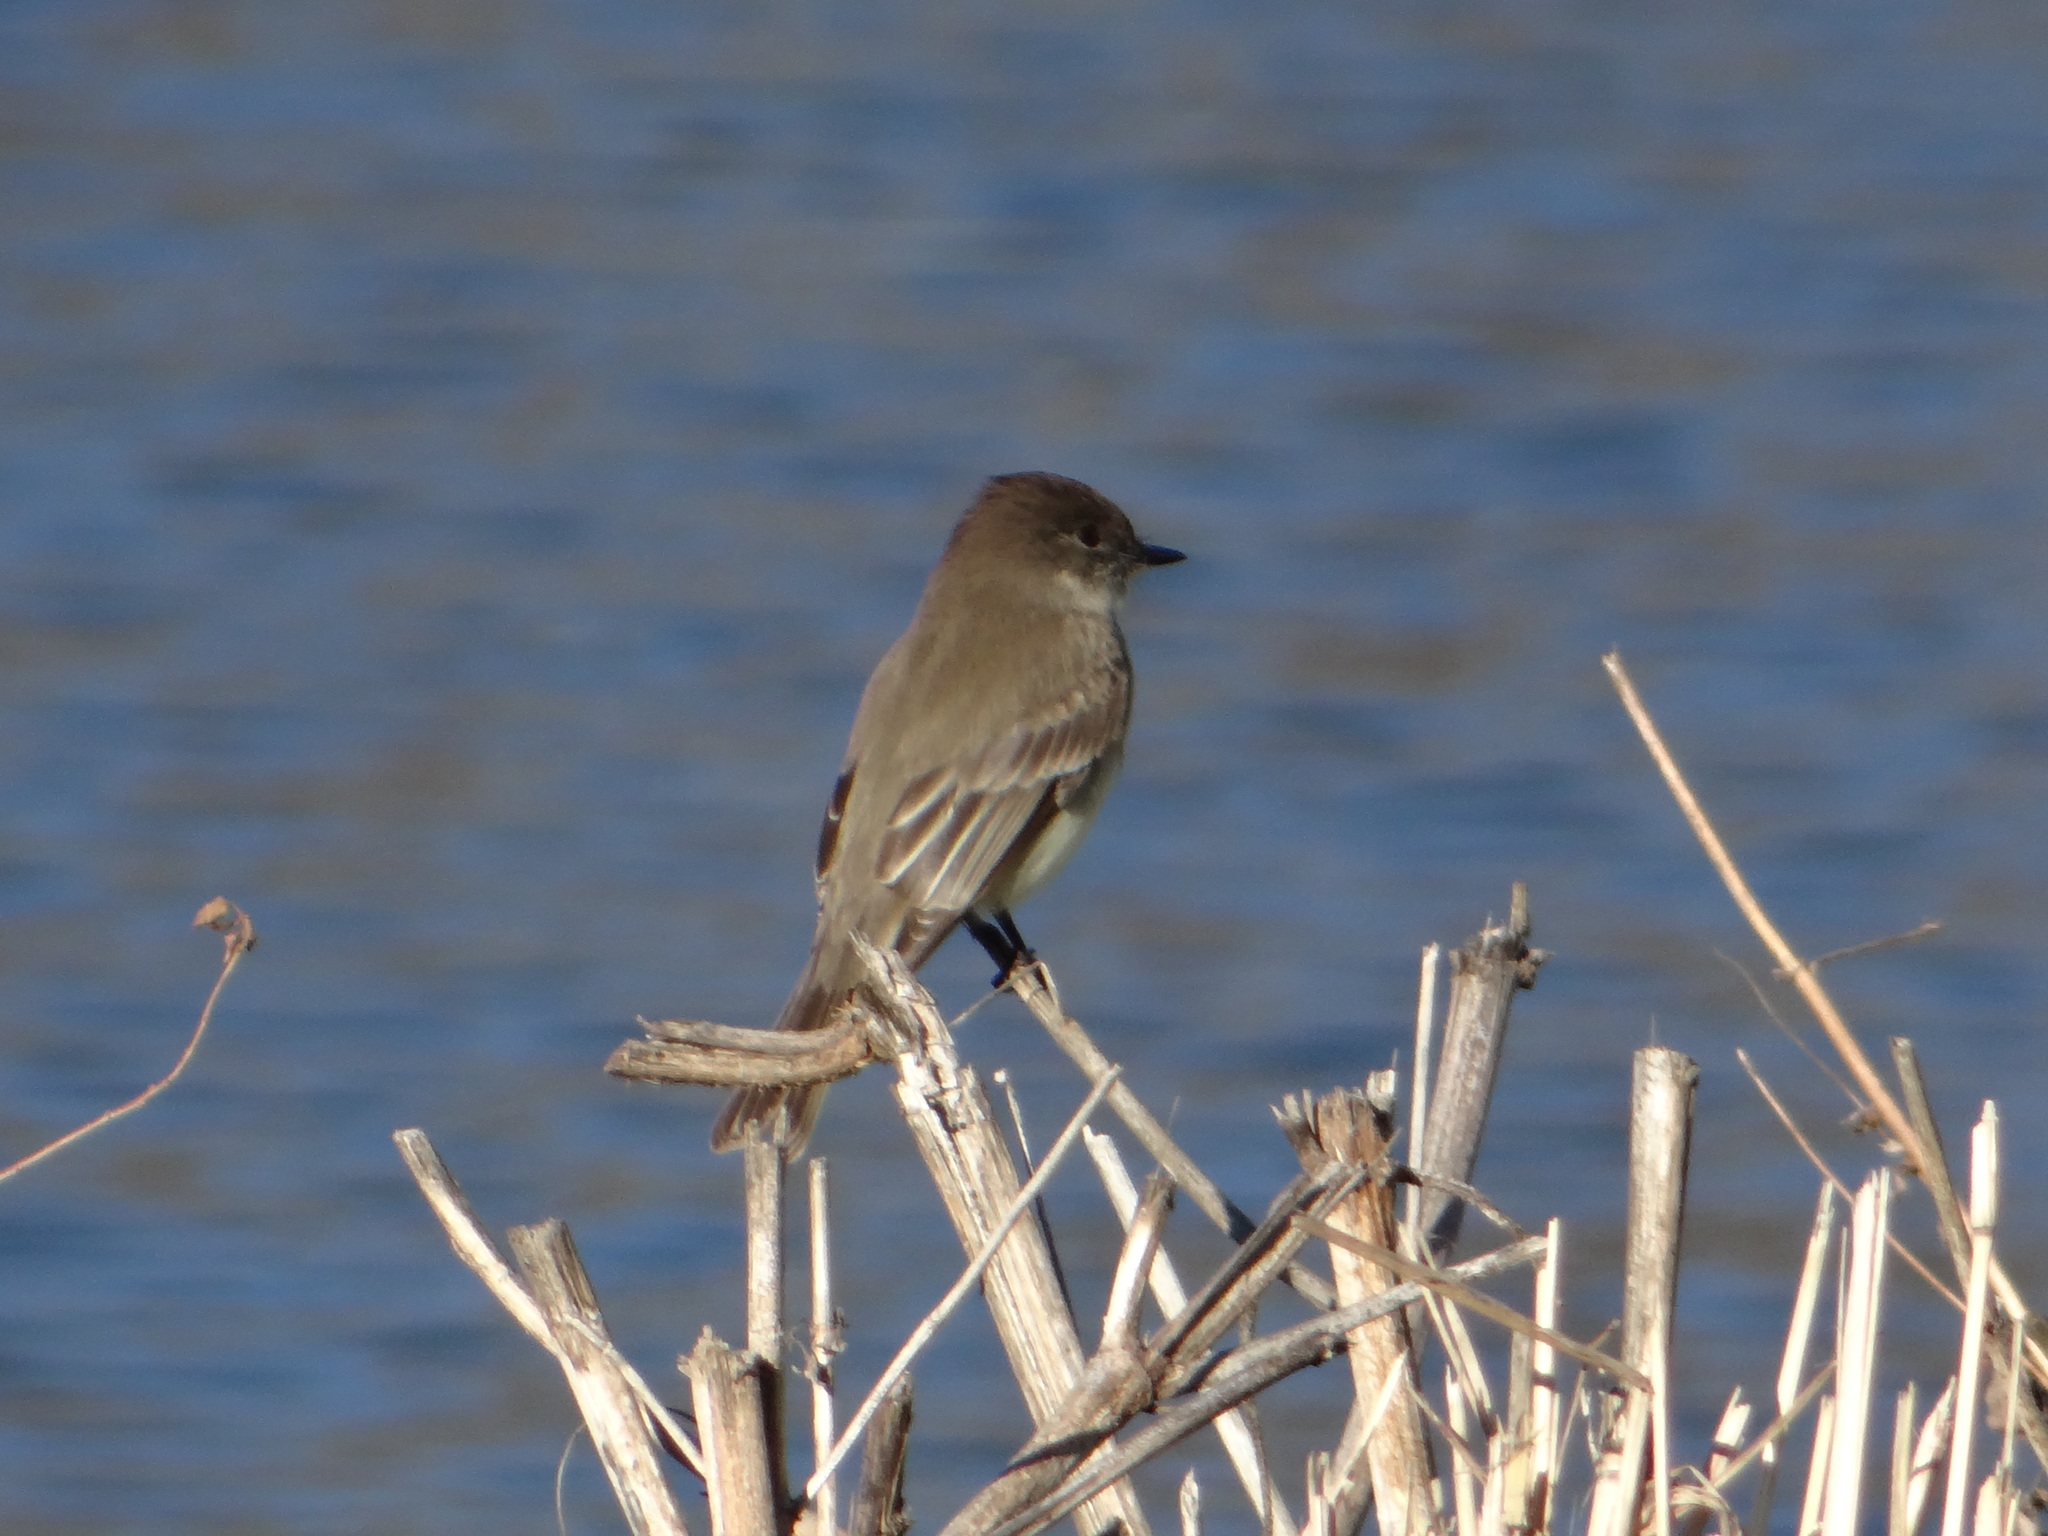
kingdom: Animalia
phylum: Chordata
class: Aves
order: Passeriformes
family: Tyrannidae
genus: Sayornis
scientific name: Sayornis phoebe
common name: Eastern phoebe
